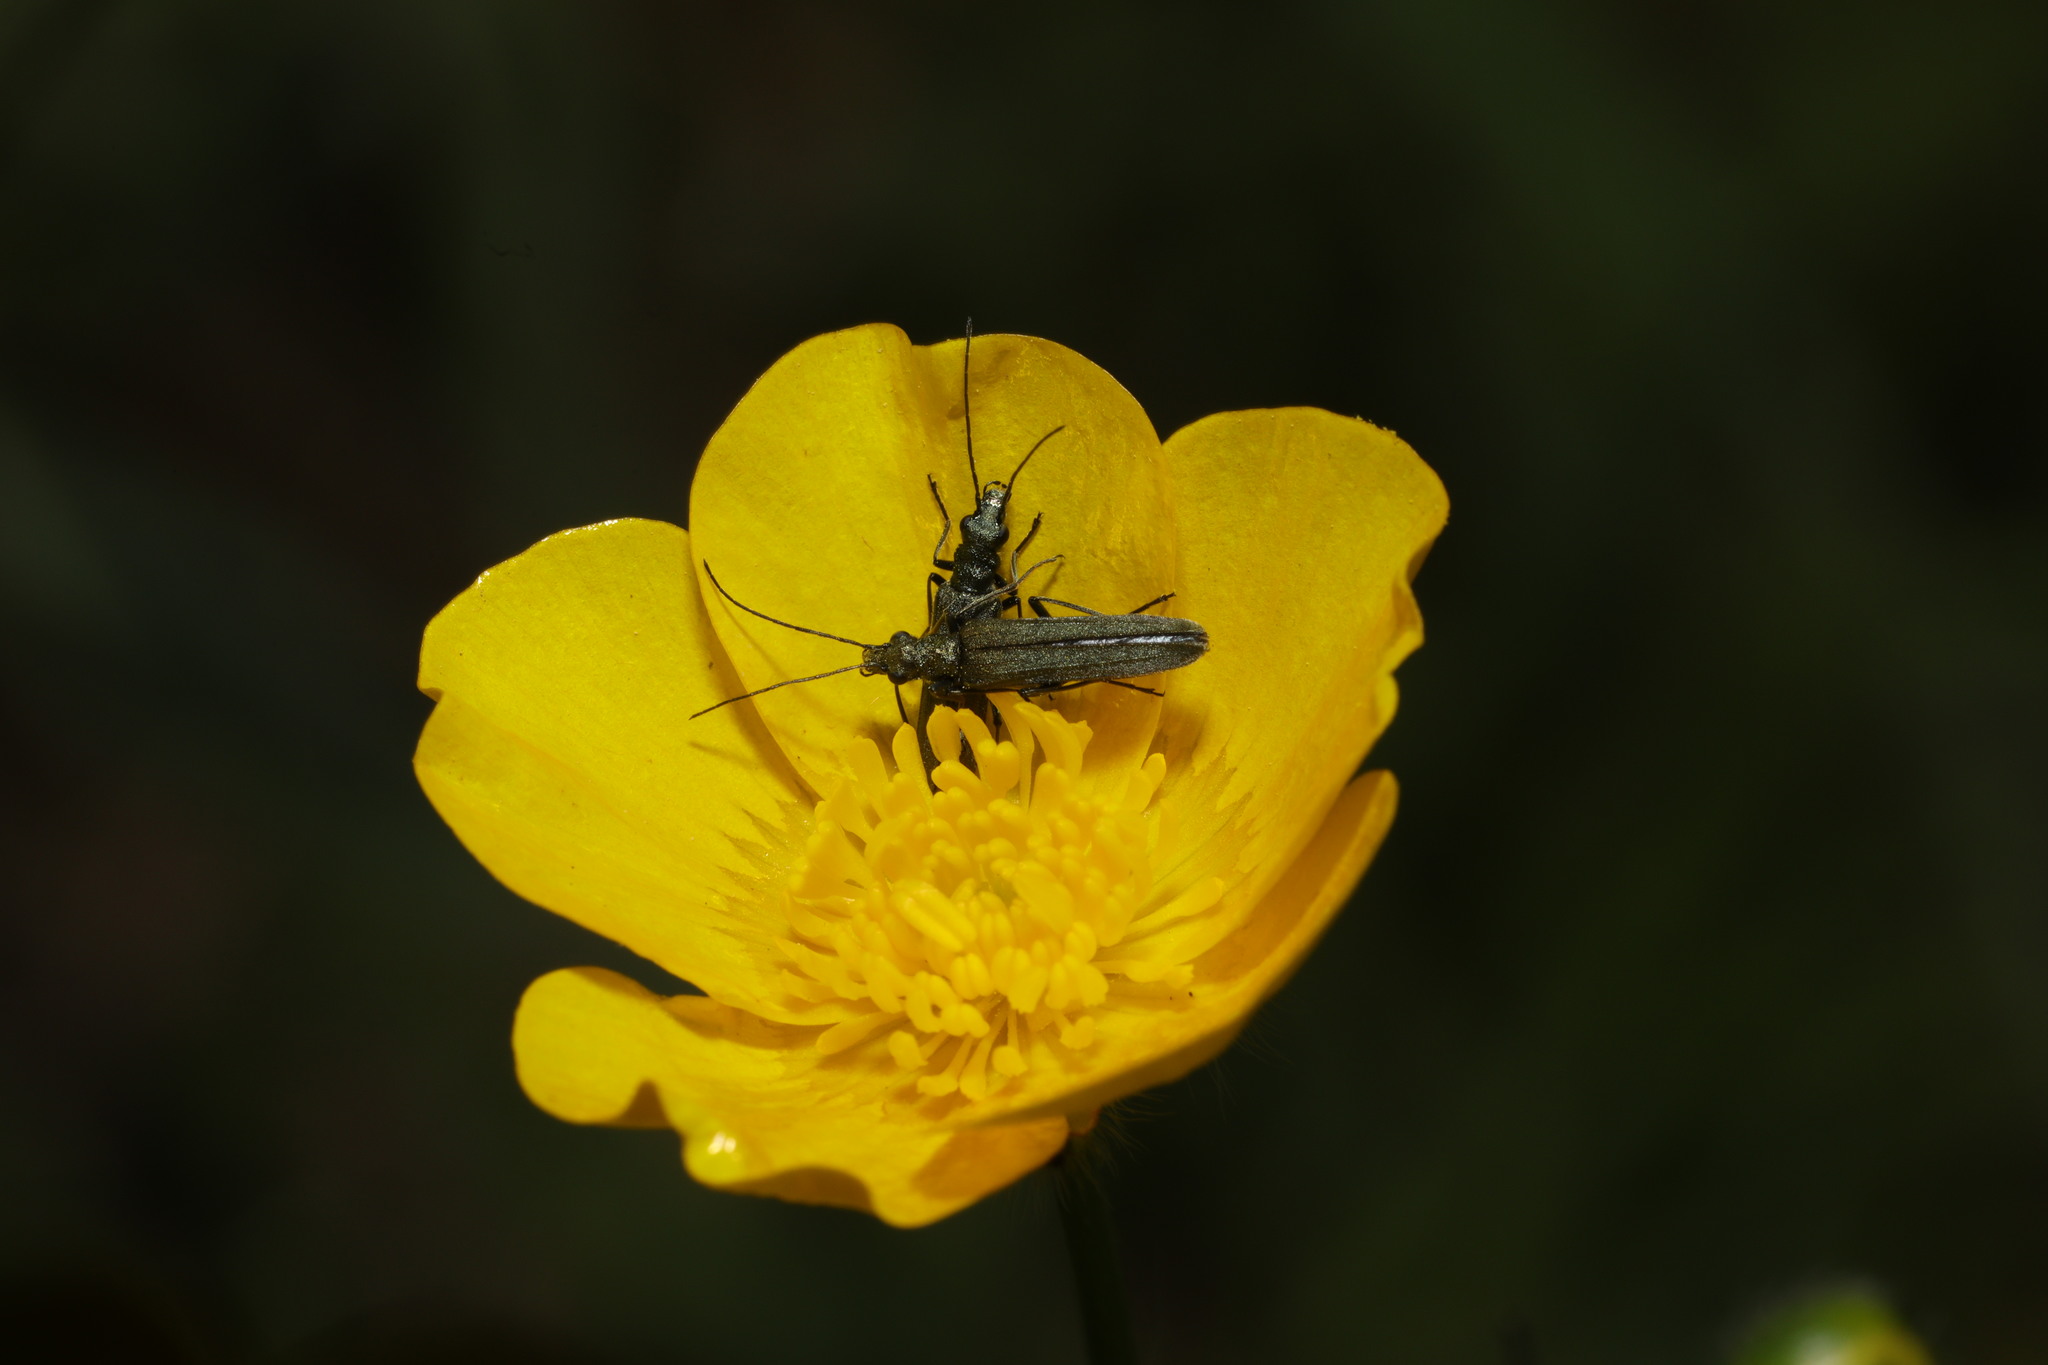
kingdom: Animalia
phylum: Arthropoda
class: Insecta
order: Coleoptera
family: Oedemeridae
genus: Oedemera
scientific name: Oedemera lurida
